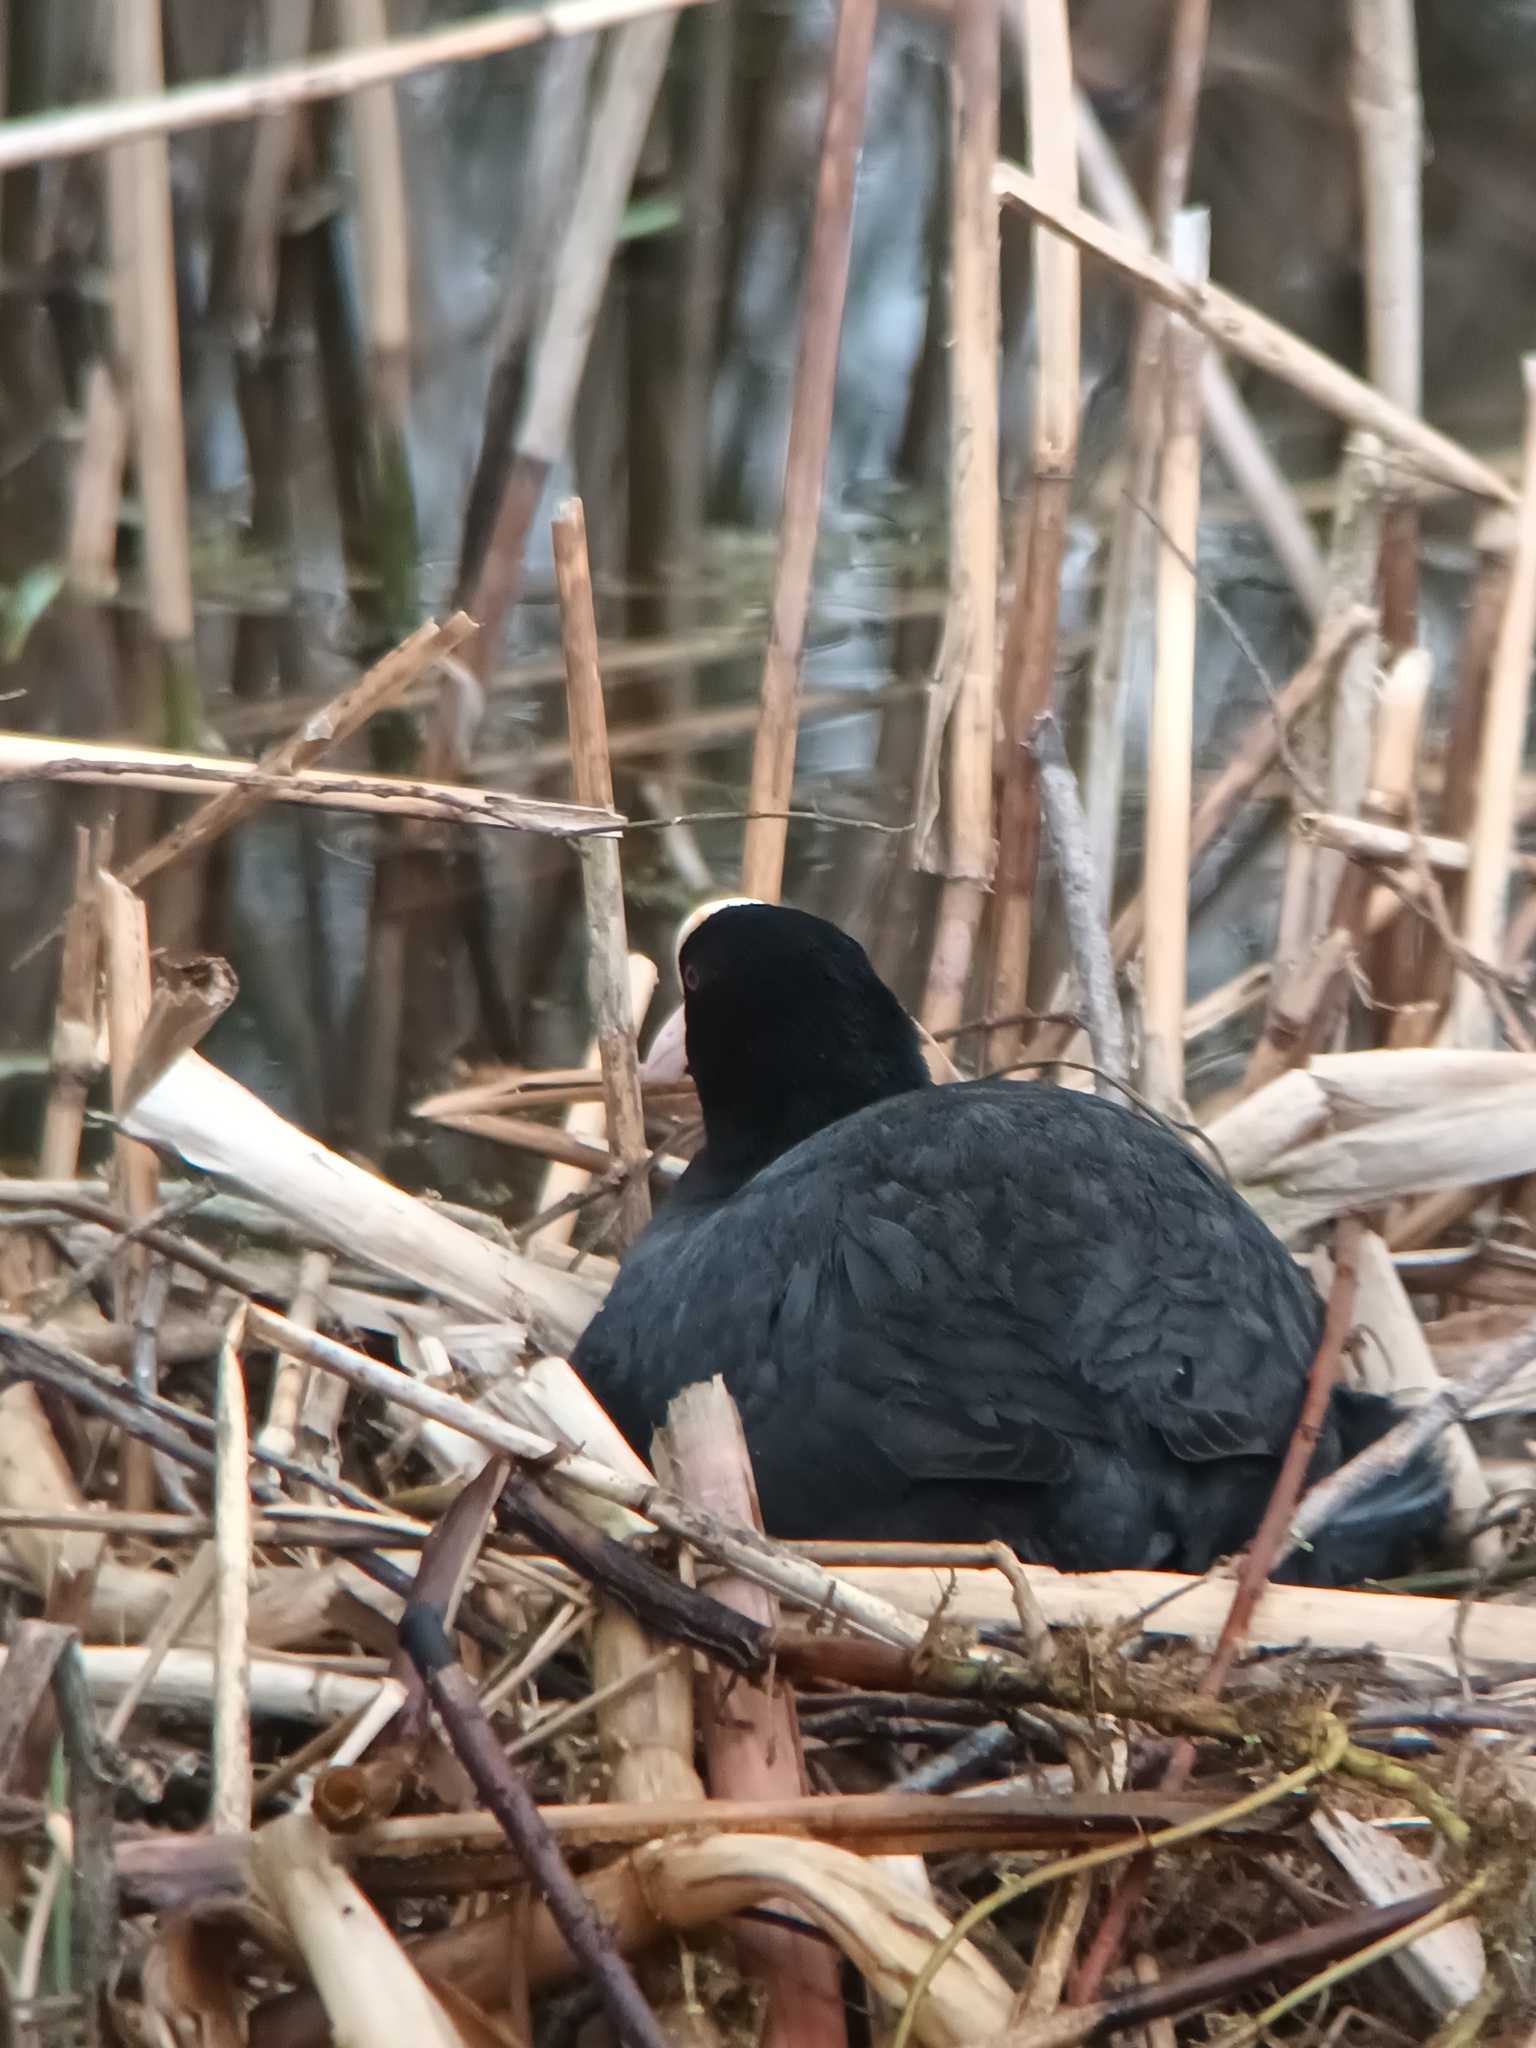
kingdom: Animalia
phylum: Chordata
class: Aves
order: Gruiformes
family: Rallidae
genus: Fulica
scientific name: Fulica atra
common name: Eurasian coot
